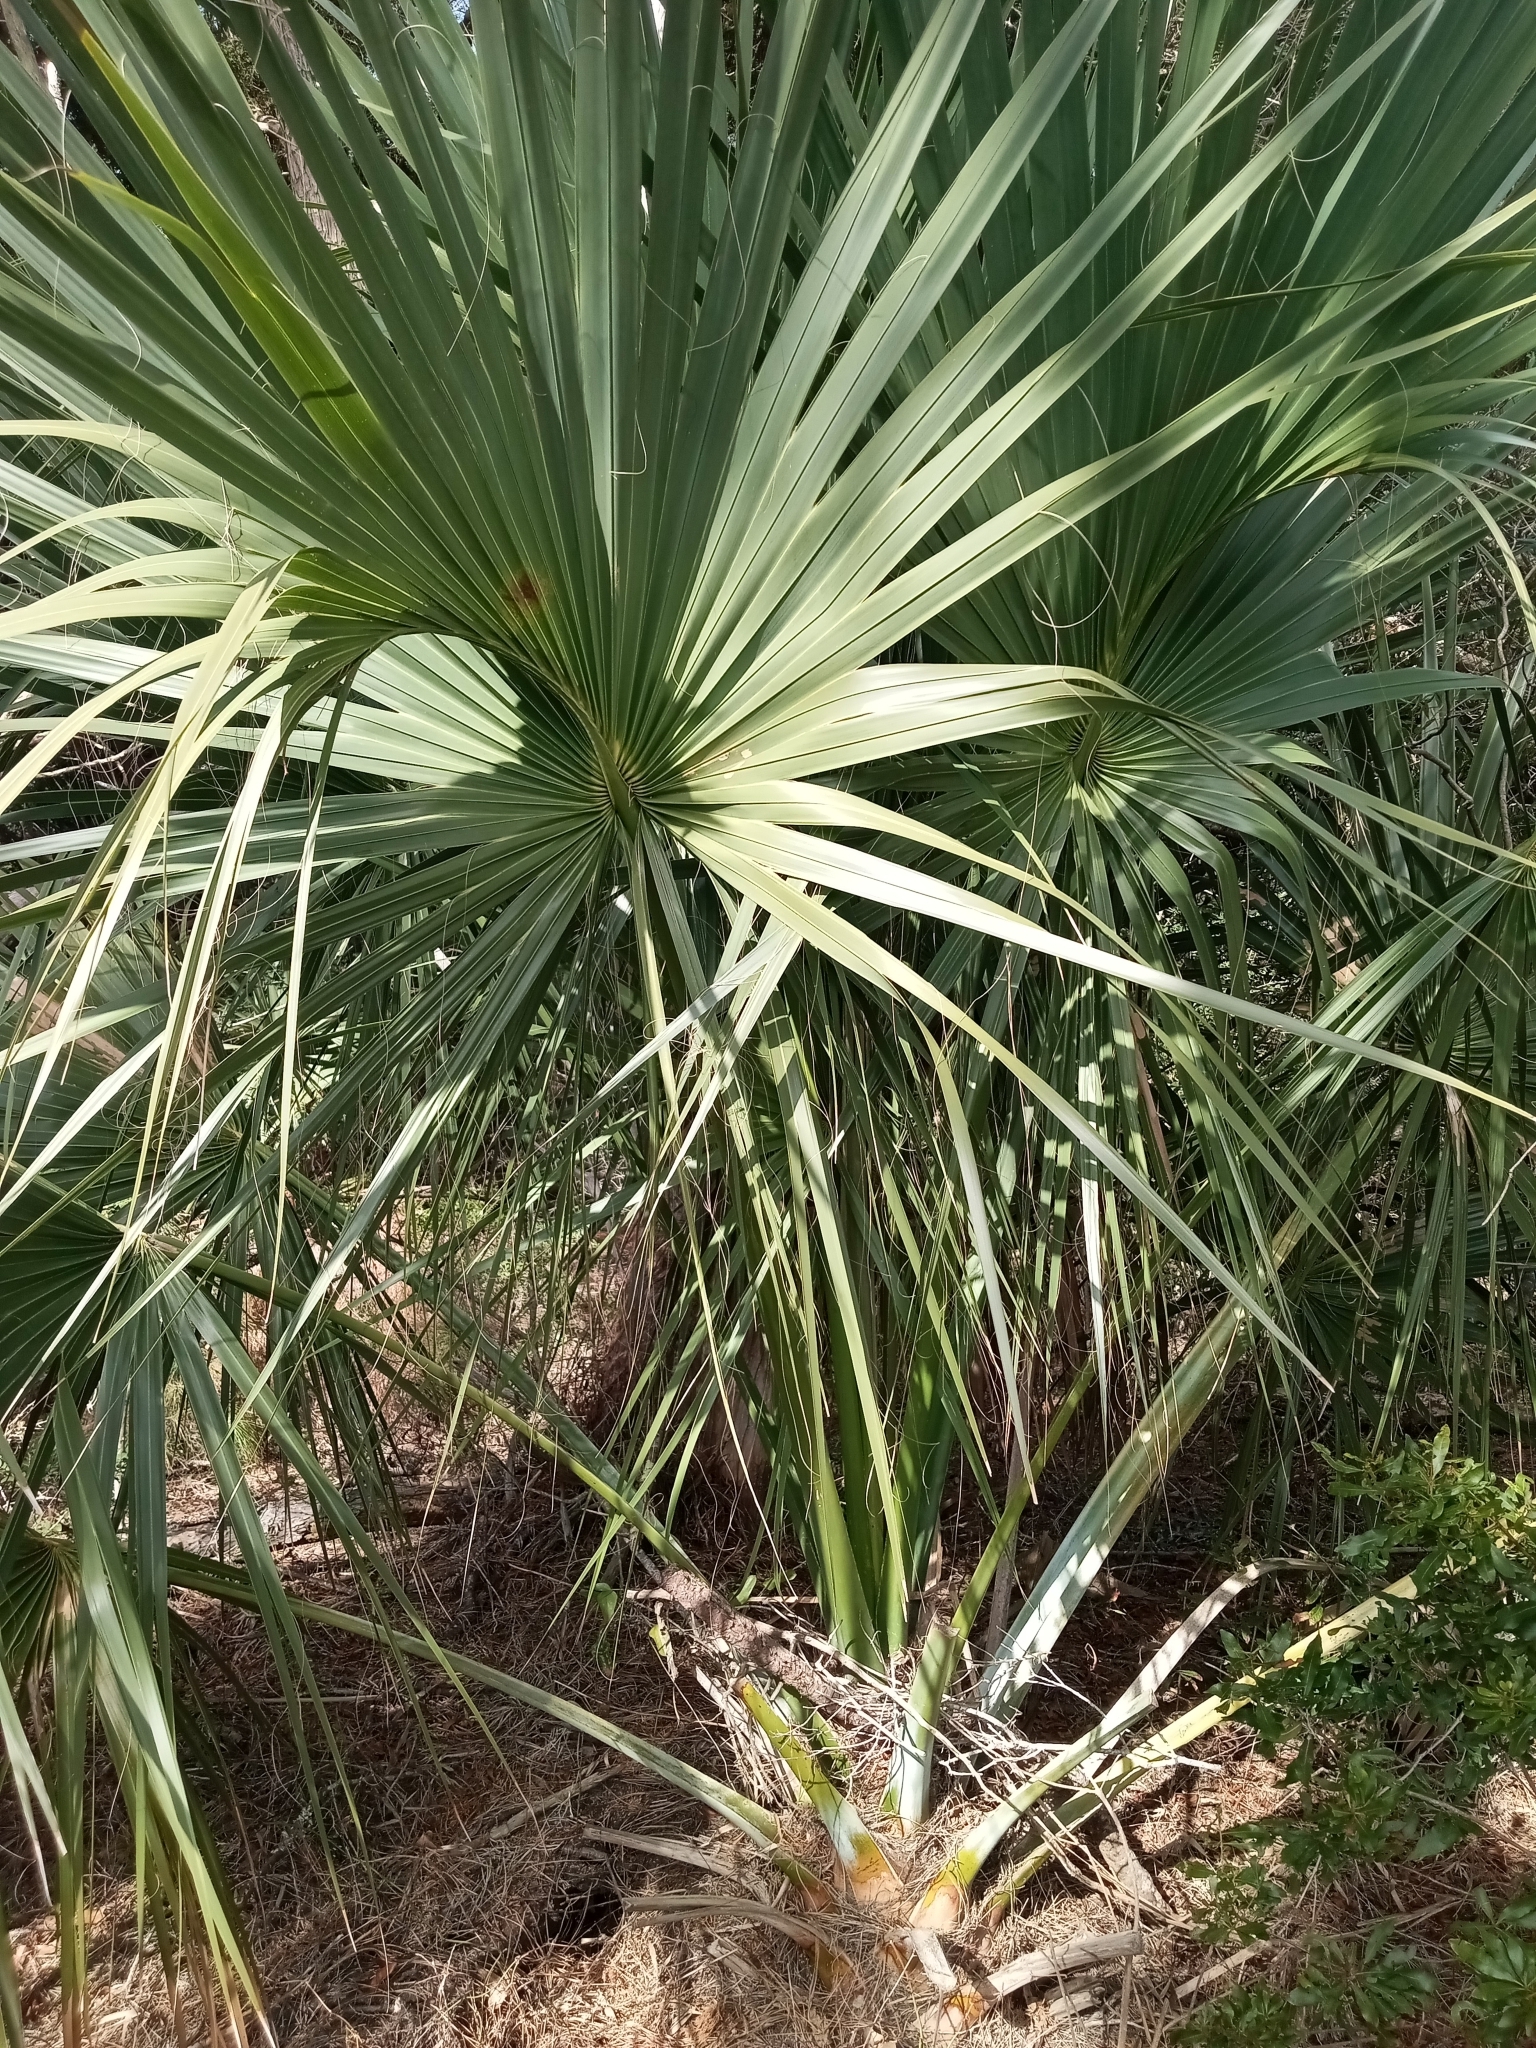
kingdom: Plantae
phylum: Tracheophyta
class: Liliopsida
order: Arecales
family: Arecaceae
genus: Sabal
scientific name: Sabal palmetto
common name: Blue palmetto
